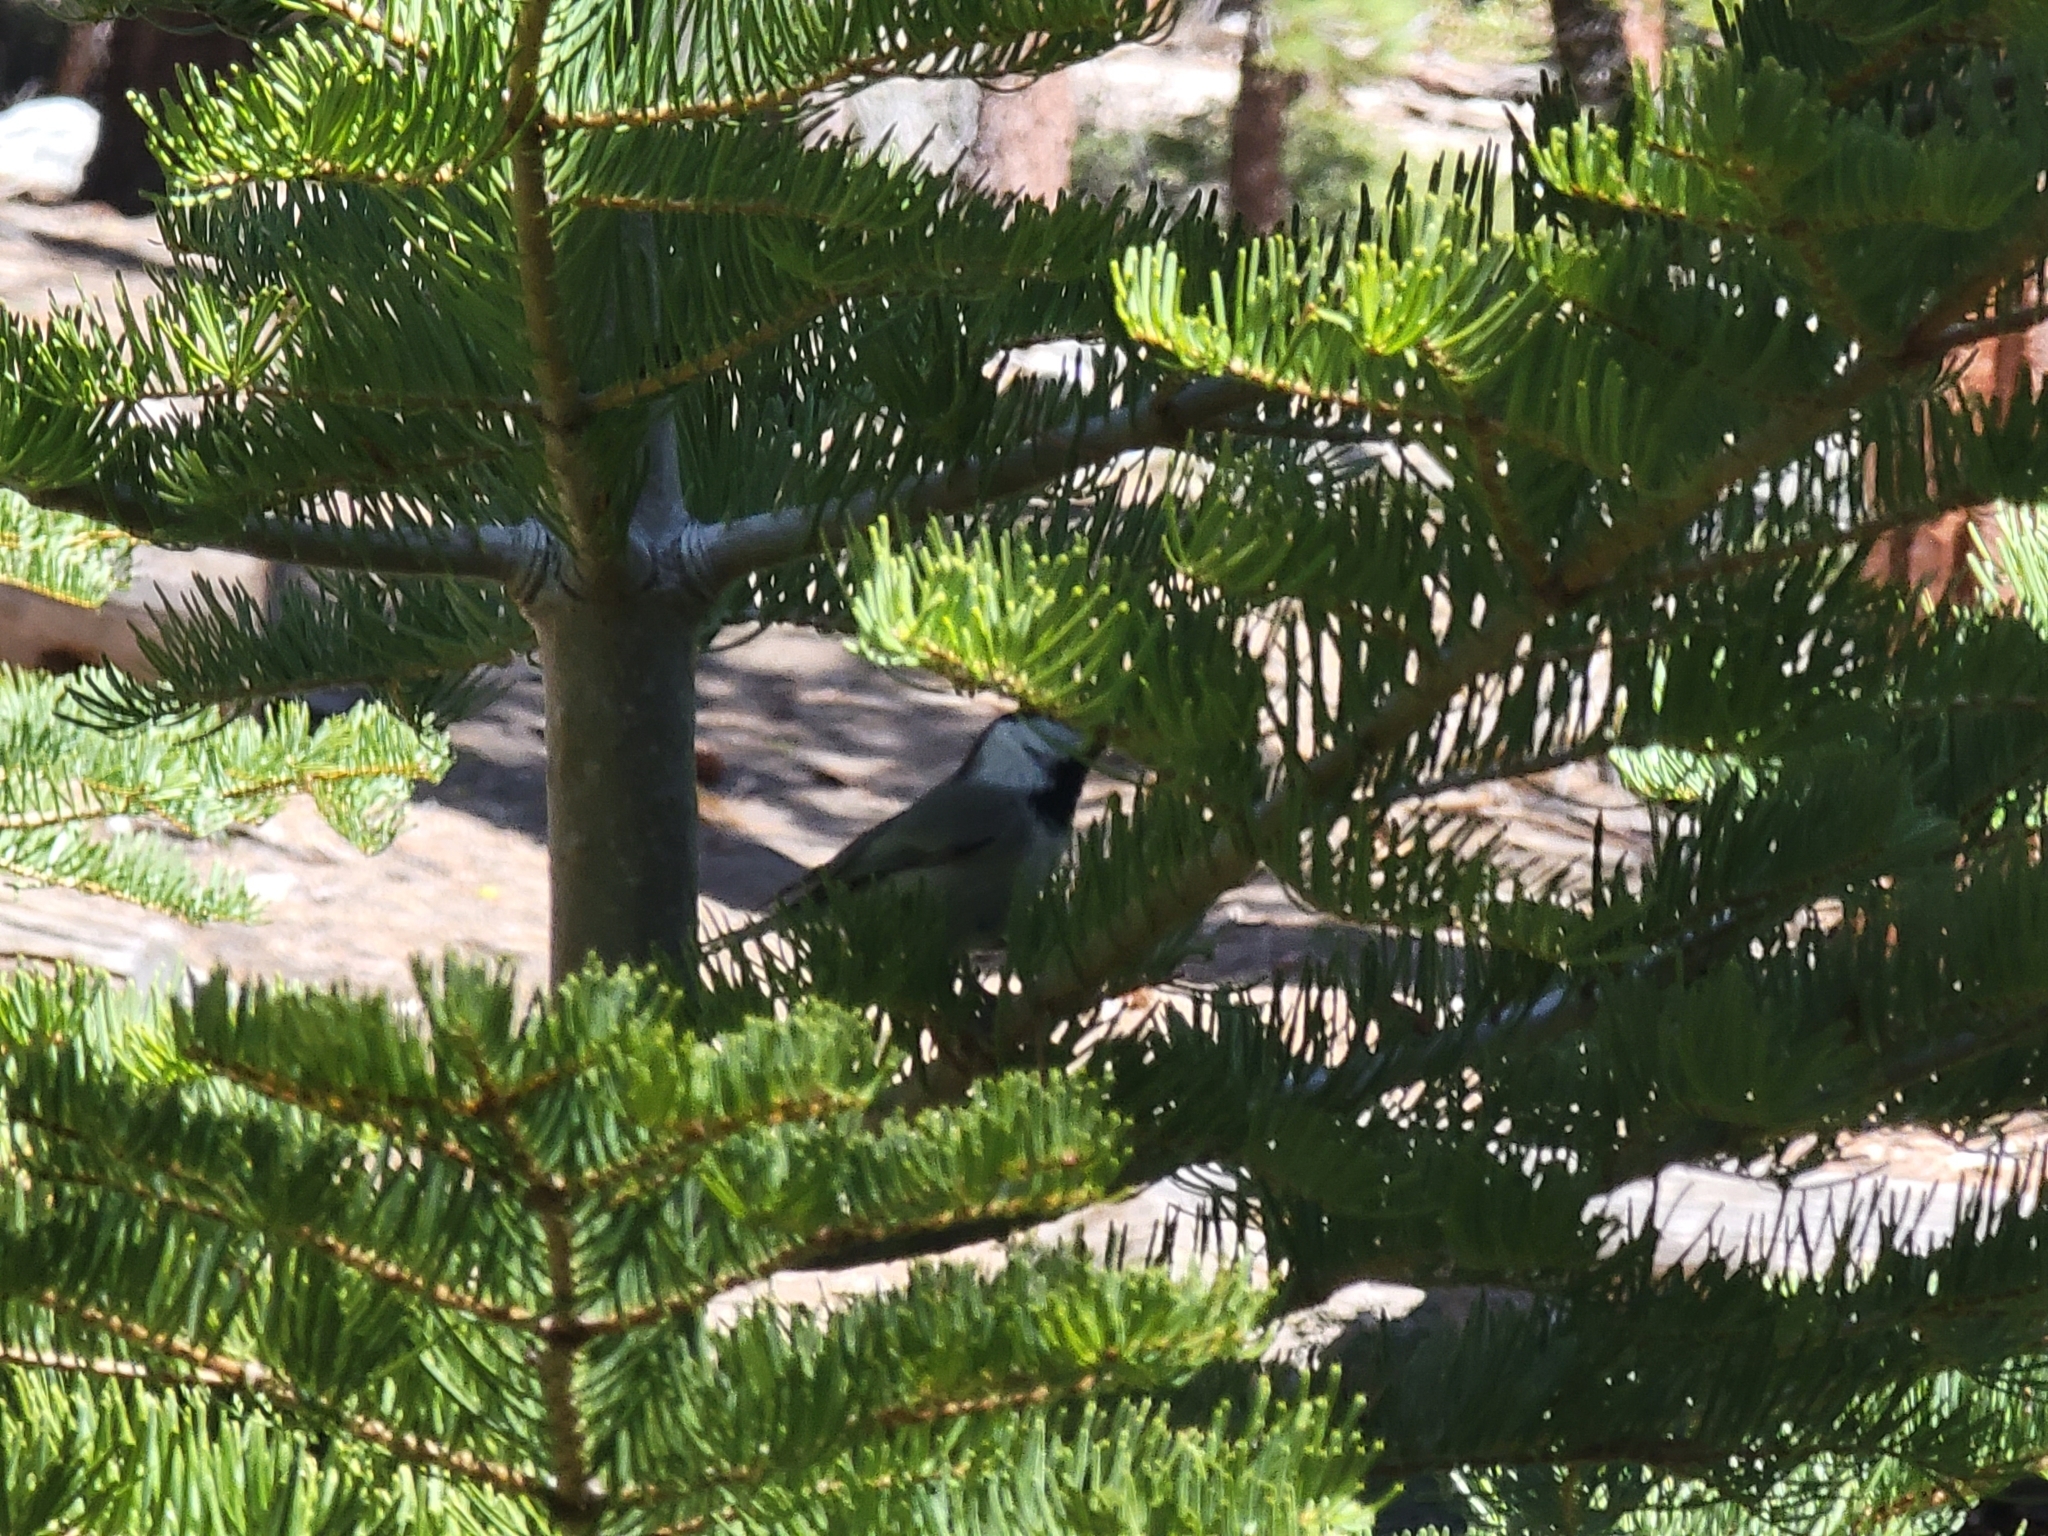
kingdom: Animalia
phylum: Chordata
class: Aves
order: Passeriformes
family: Paridae
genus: Poecile
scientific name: Poecile gambeli
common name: Mountain chickadee
